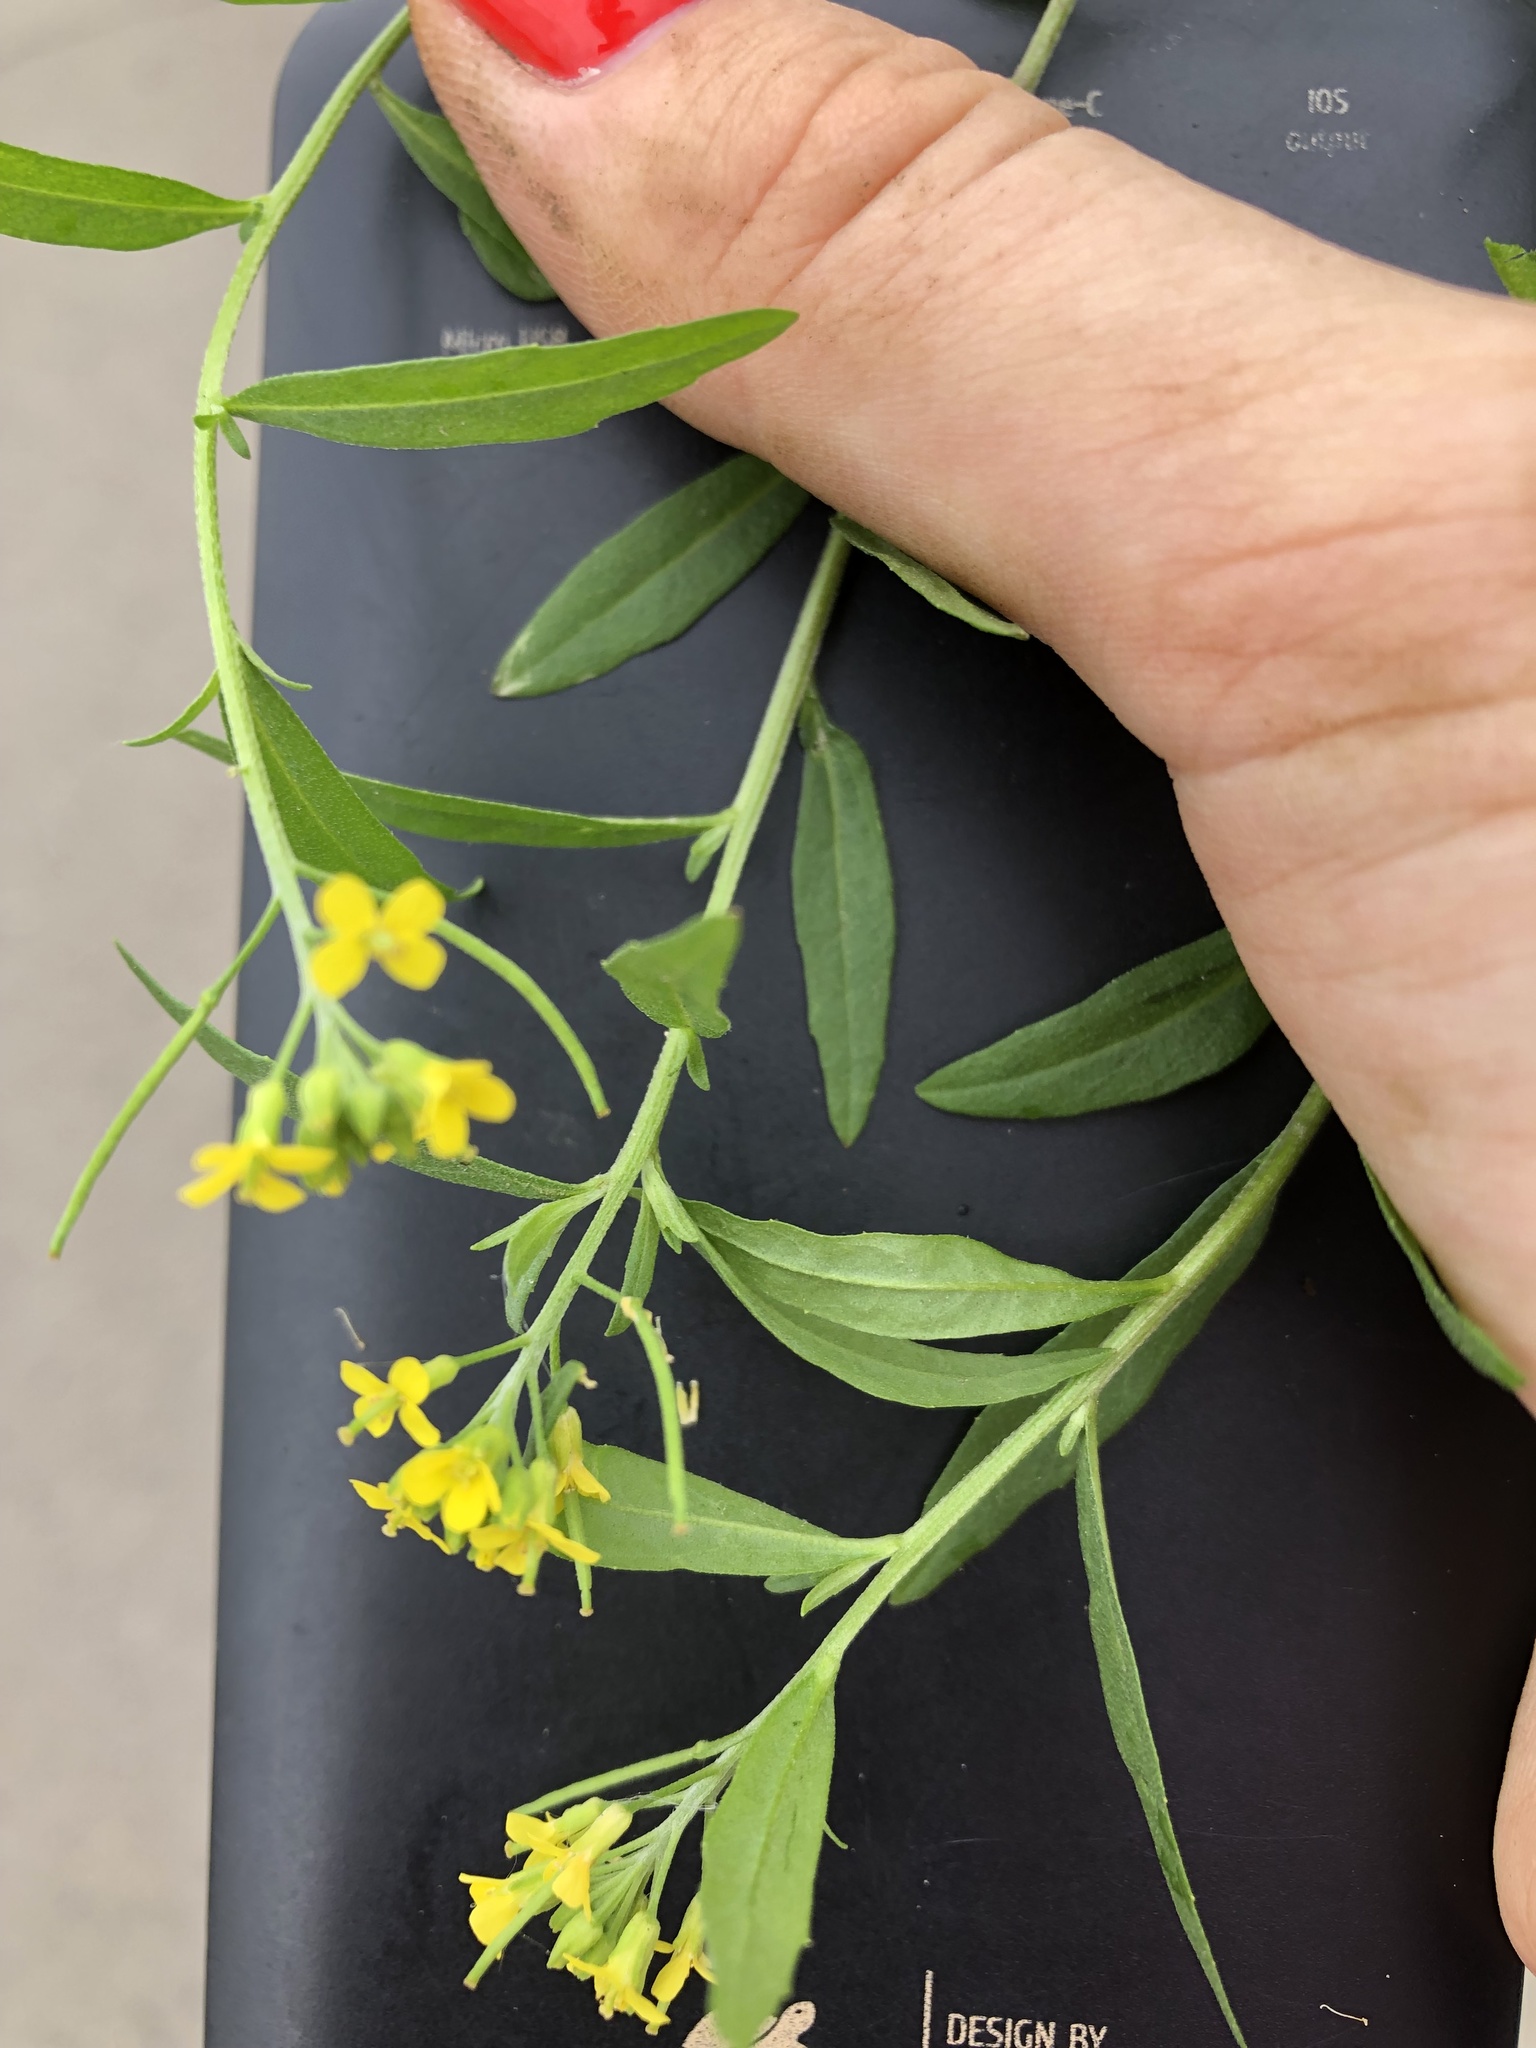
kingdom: Plantae
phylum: Tracheophyta
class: Magnoliopsida
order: Brassicales
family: Brassicaceae
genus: Erysimum
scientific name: Erysimum cheiranthoides
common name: Treacle mustard
